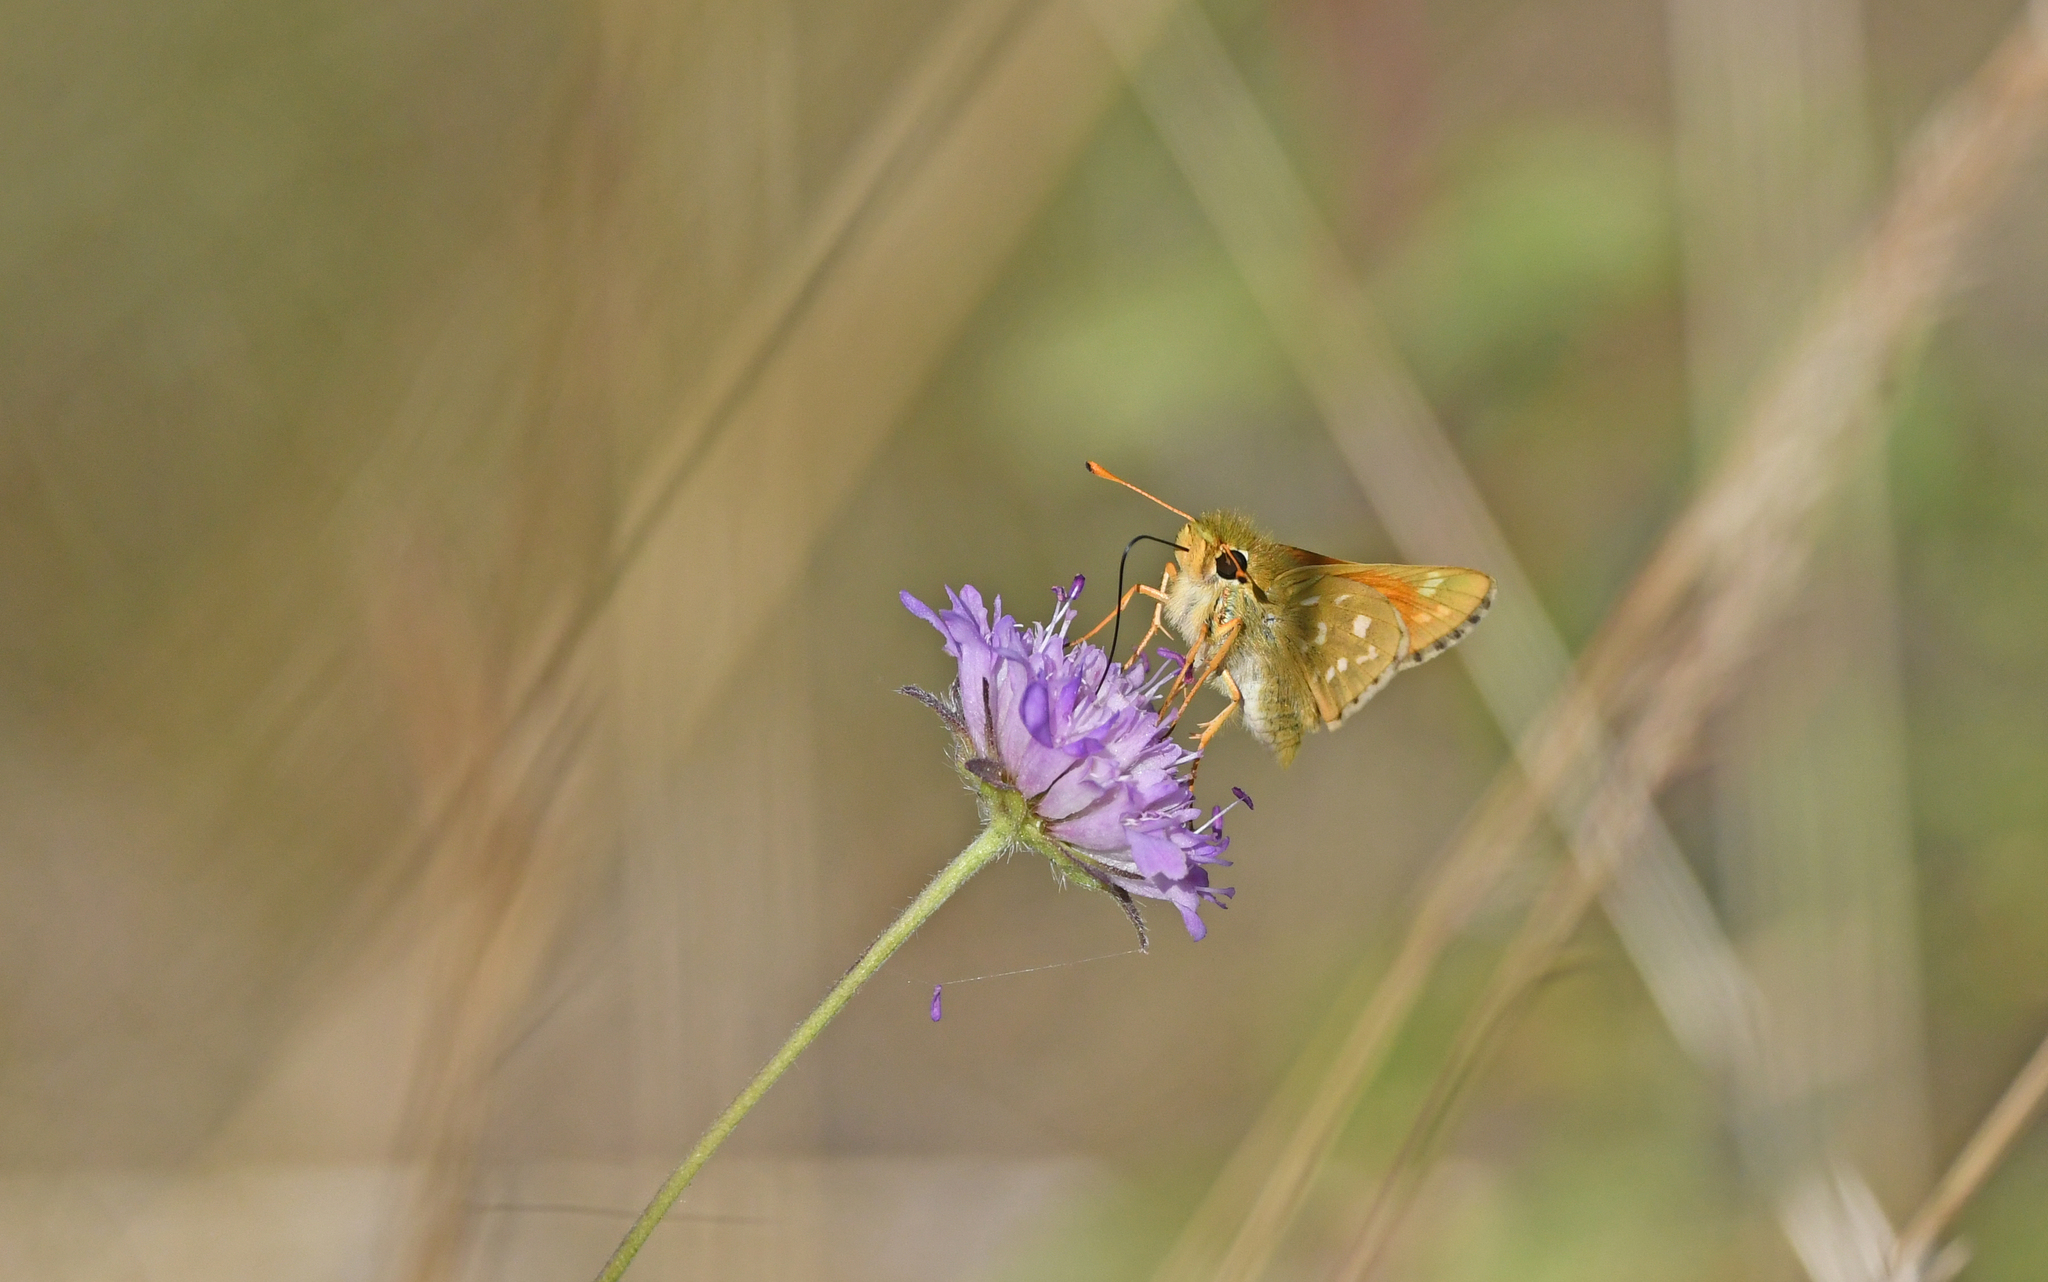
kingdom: Animalia
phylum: Arthropoda
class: Insecta
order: Lepidoptera
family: Hesperiidae
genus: Hesperia
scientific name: Hesperia comma
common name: Common branded skipper
